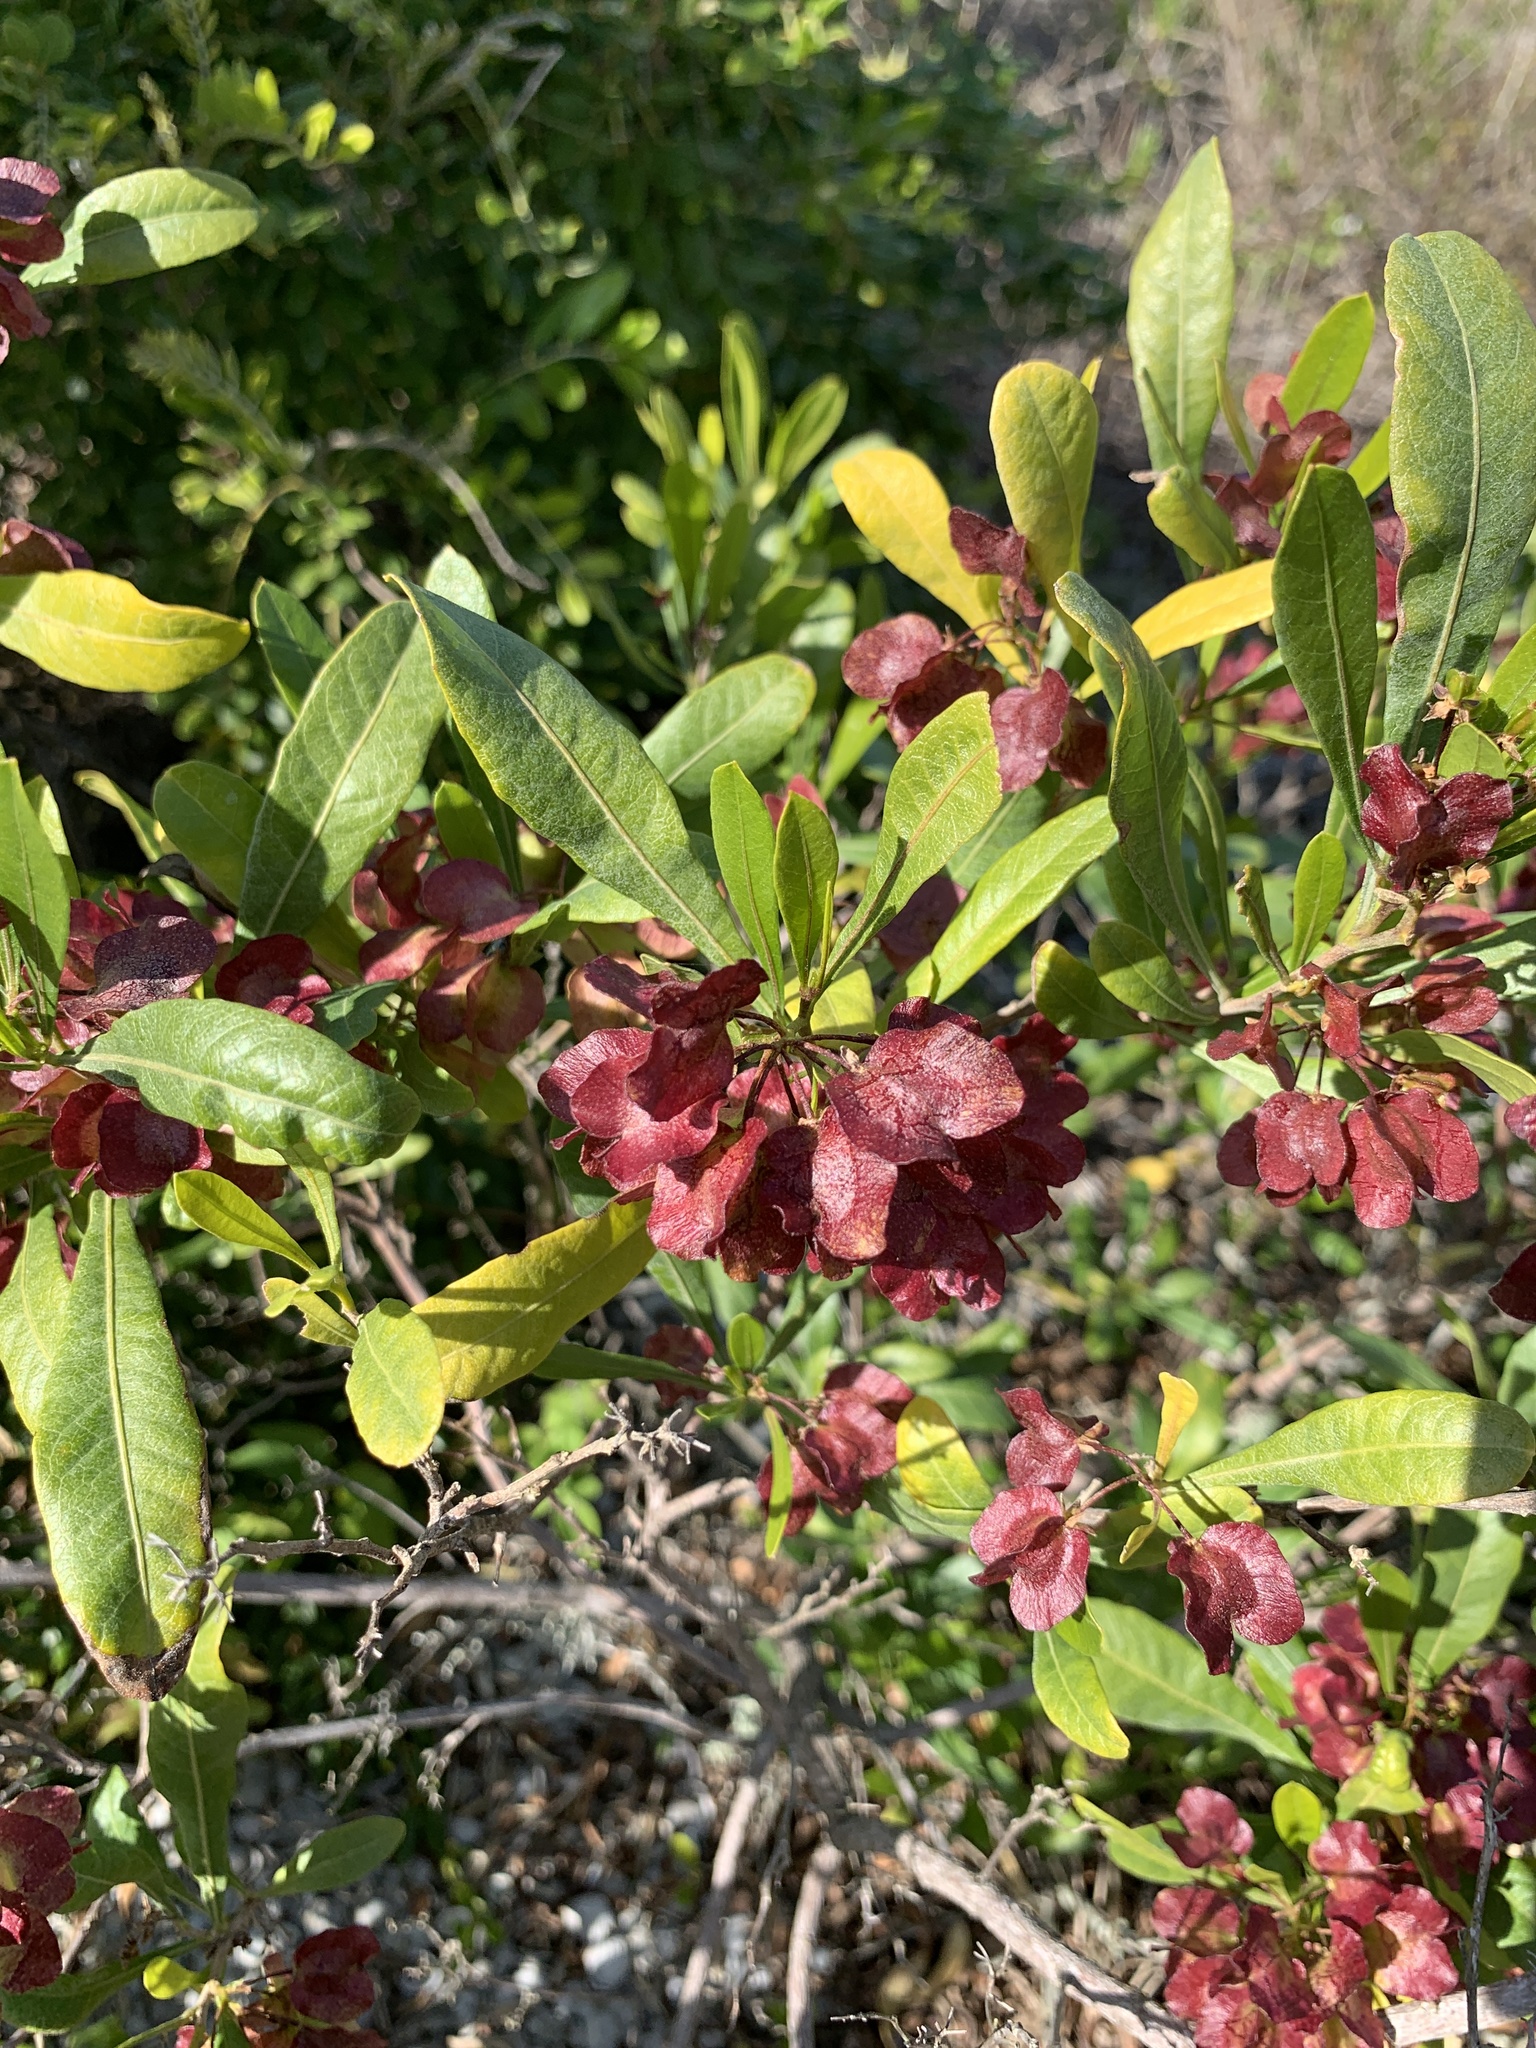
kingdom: Plantae
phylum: Tracheophyta
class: Magnoliopsida
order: Sapindales
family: Sapindaceae
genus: Dodonaea
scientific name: Dodonaea viscosa
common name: Hopbush
